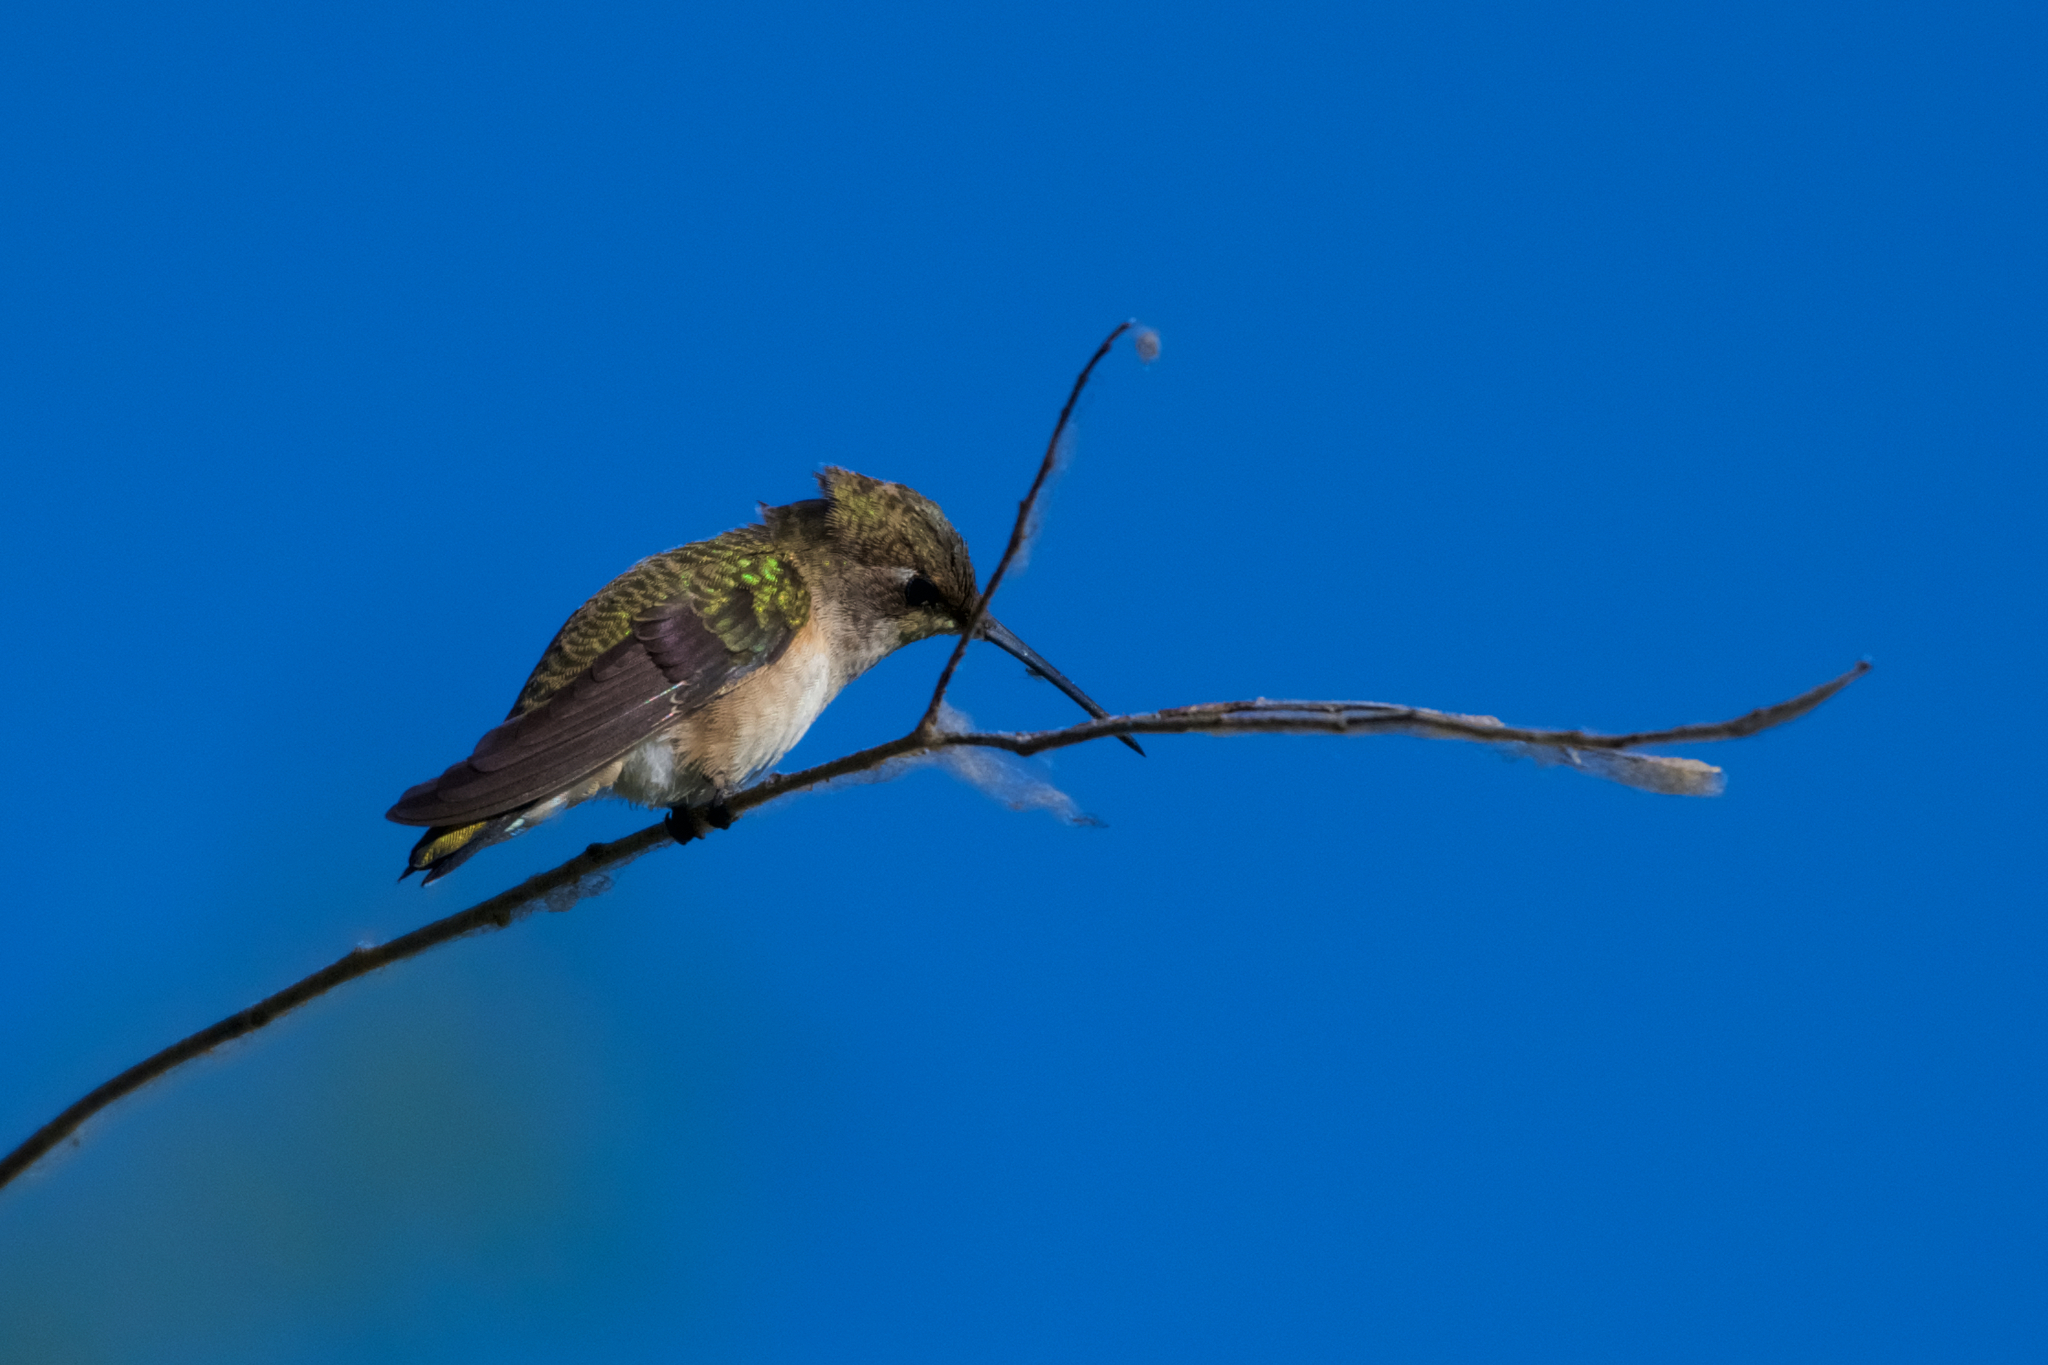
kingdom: Animalia
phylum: Chordata
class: Aves
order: Apodiformes
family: Trochilidae
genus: Archilochus
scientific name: Archilochus alexandri
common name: Black-chinned hummingbird
